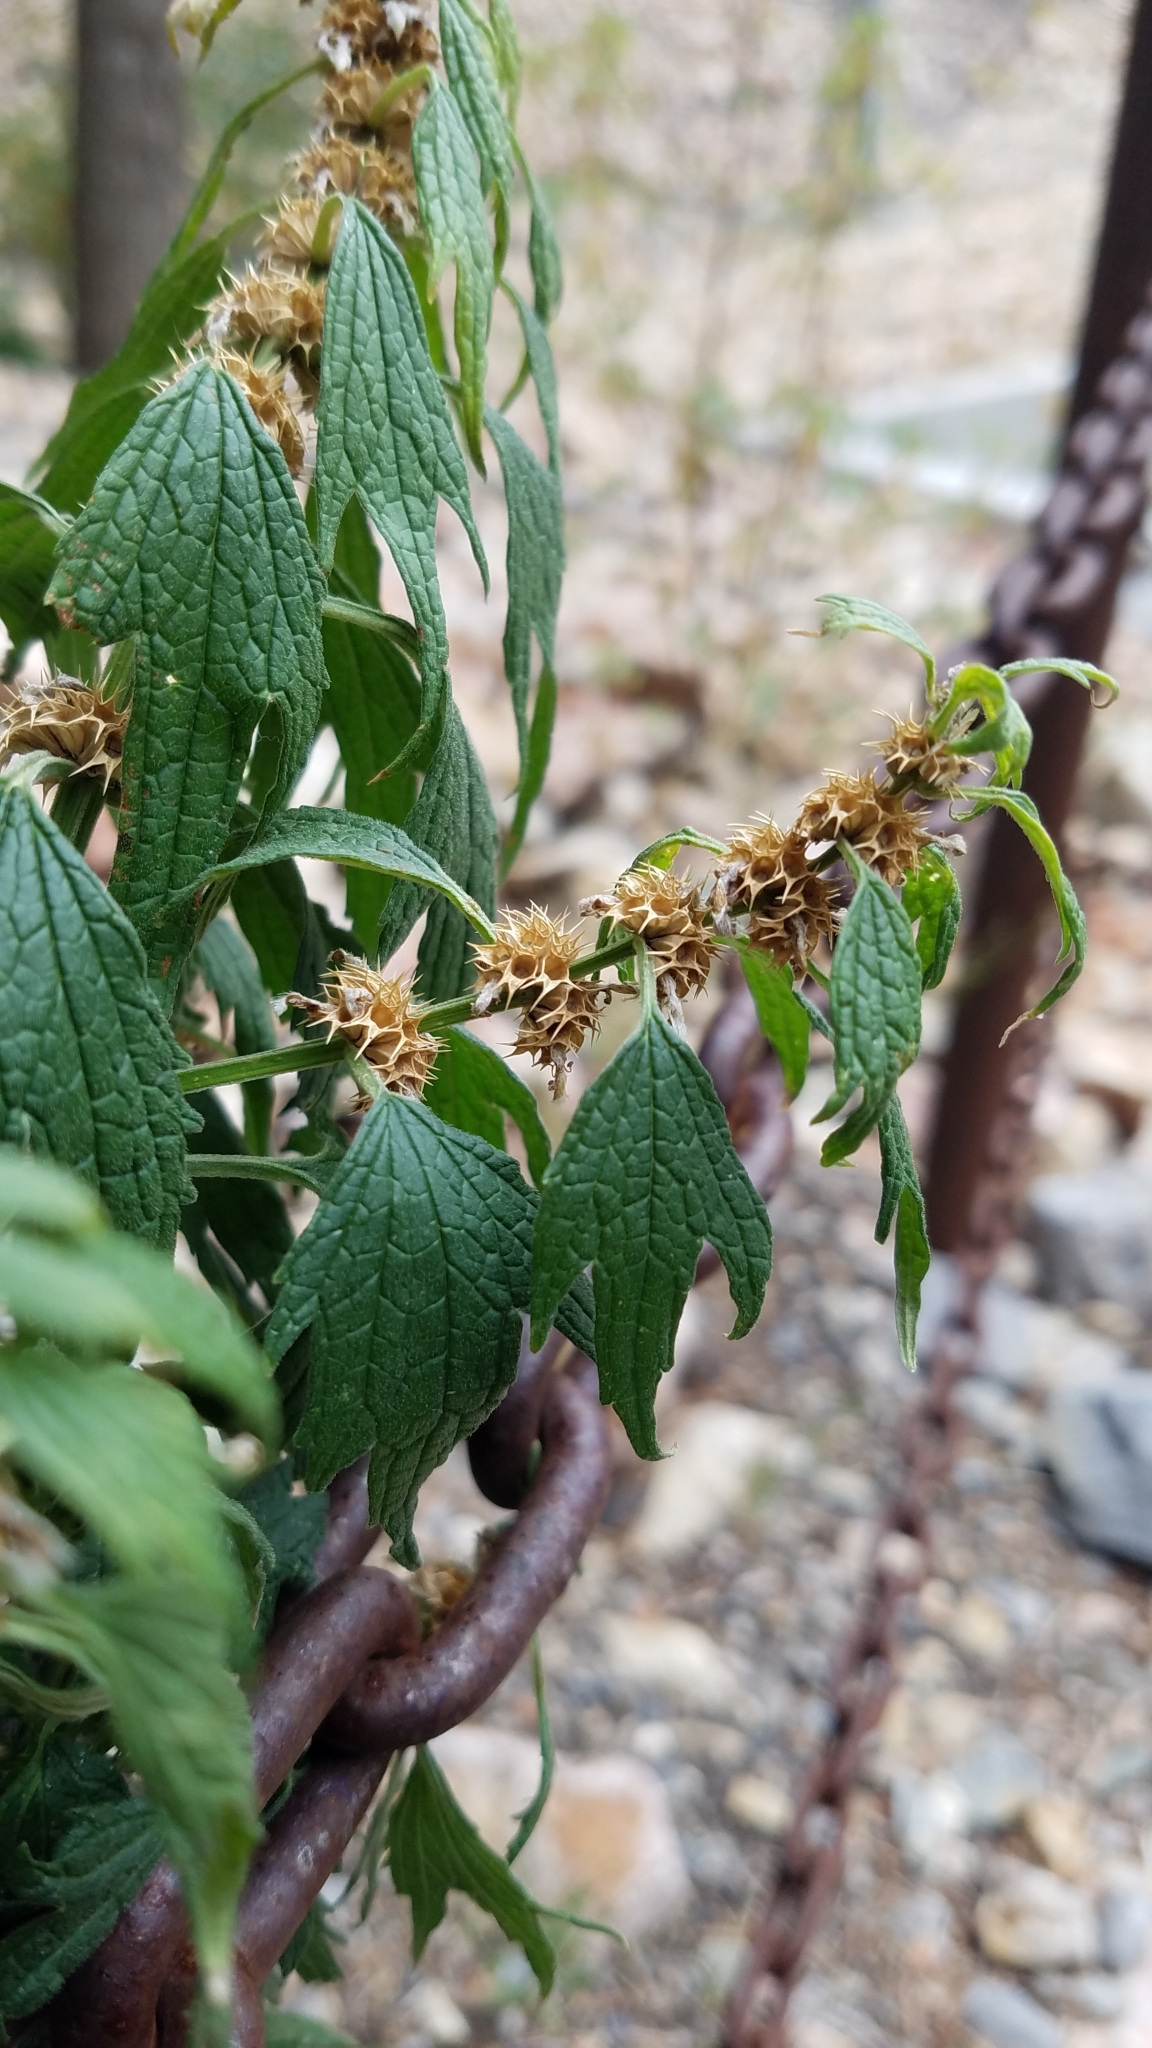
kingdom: Plantae
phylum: Tracheophyta
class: Magnoliopsida
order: Lamiales
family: Lamiaceae
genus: Leonurus
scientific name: Leonurus cardiaca
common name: Motherwort
